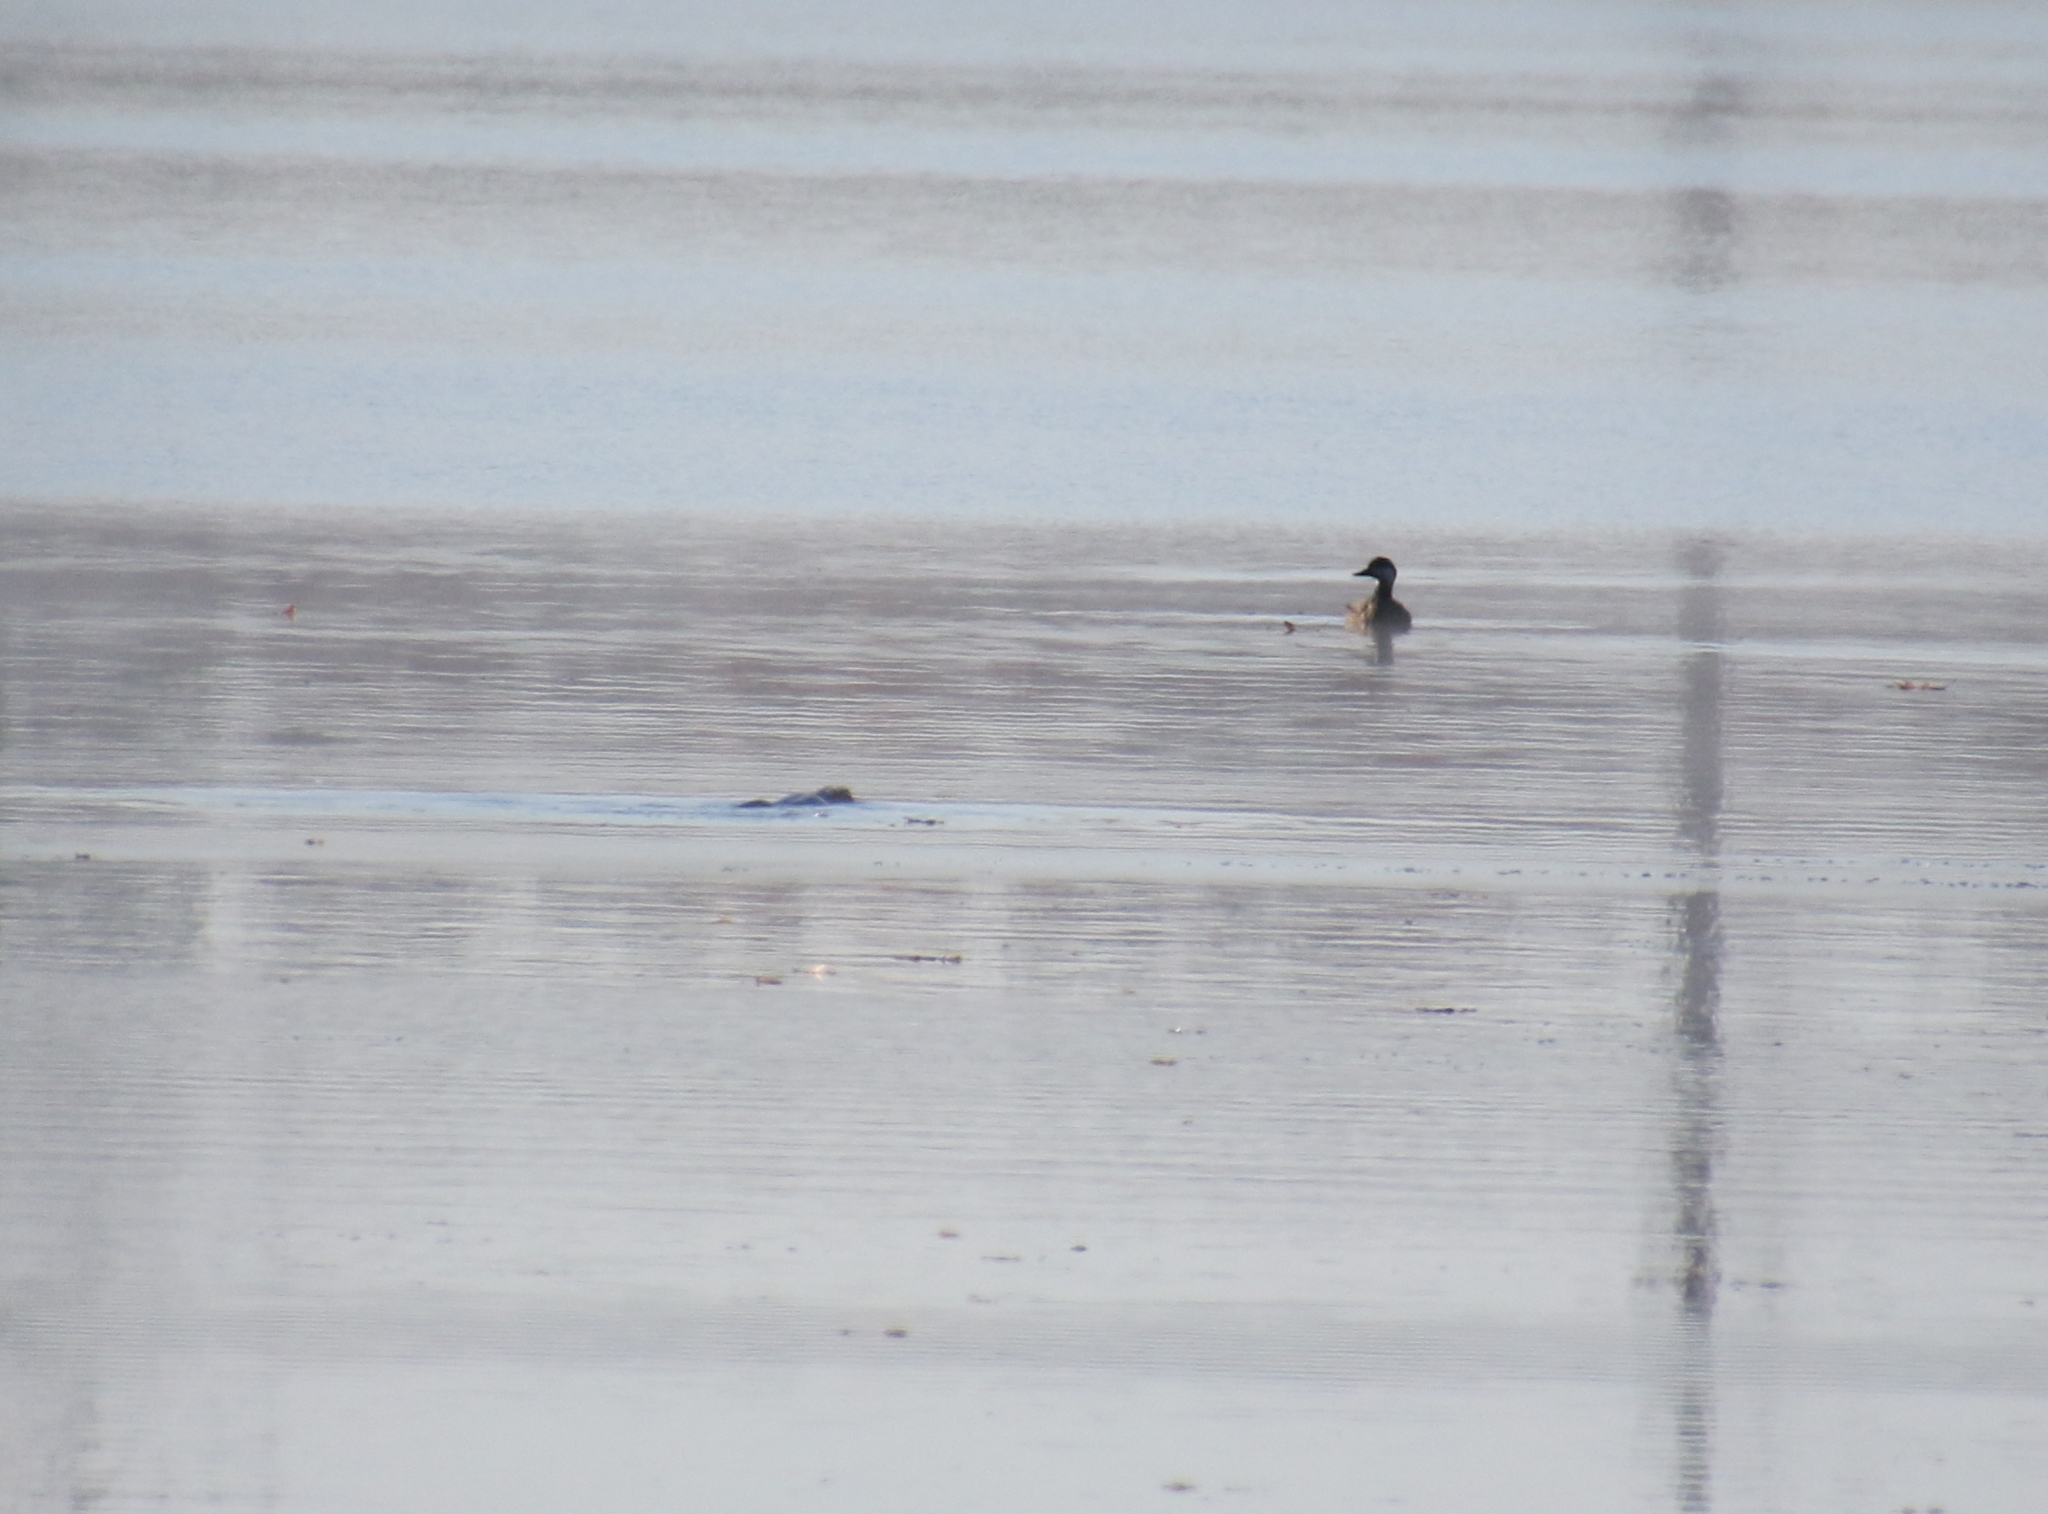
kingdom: Animalia
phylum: Chordata
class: Mammalia
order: Carnivora
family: Mustelidae
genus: Lontra
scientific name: Lontra canadensis
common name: North american river otter
